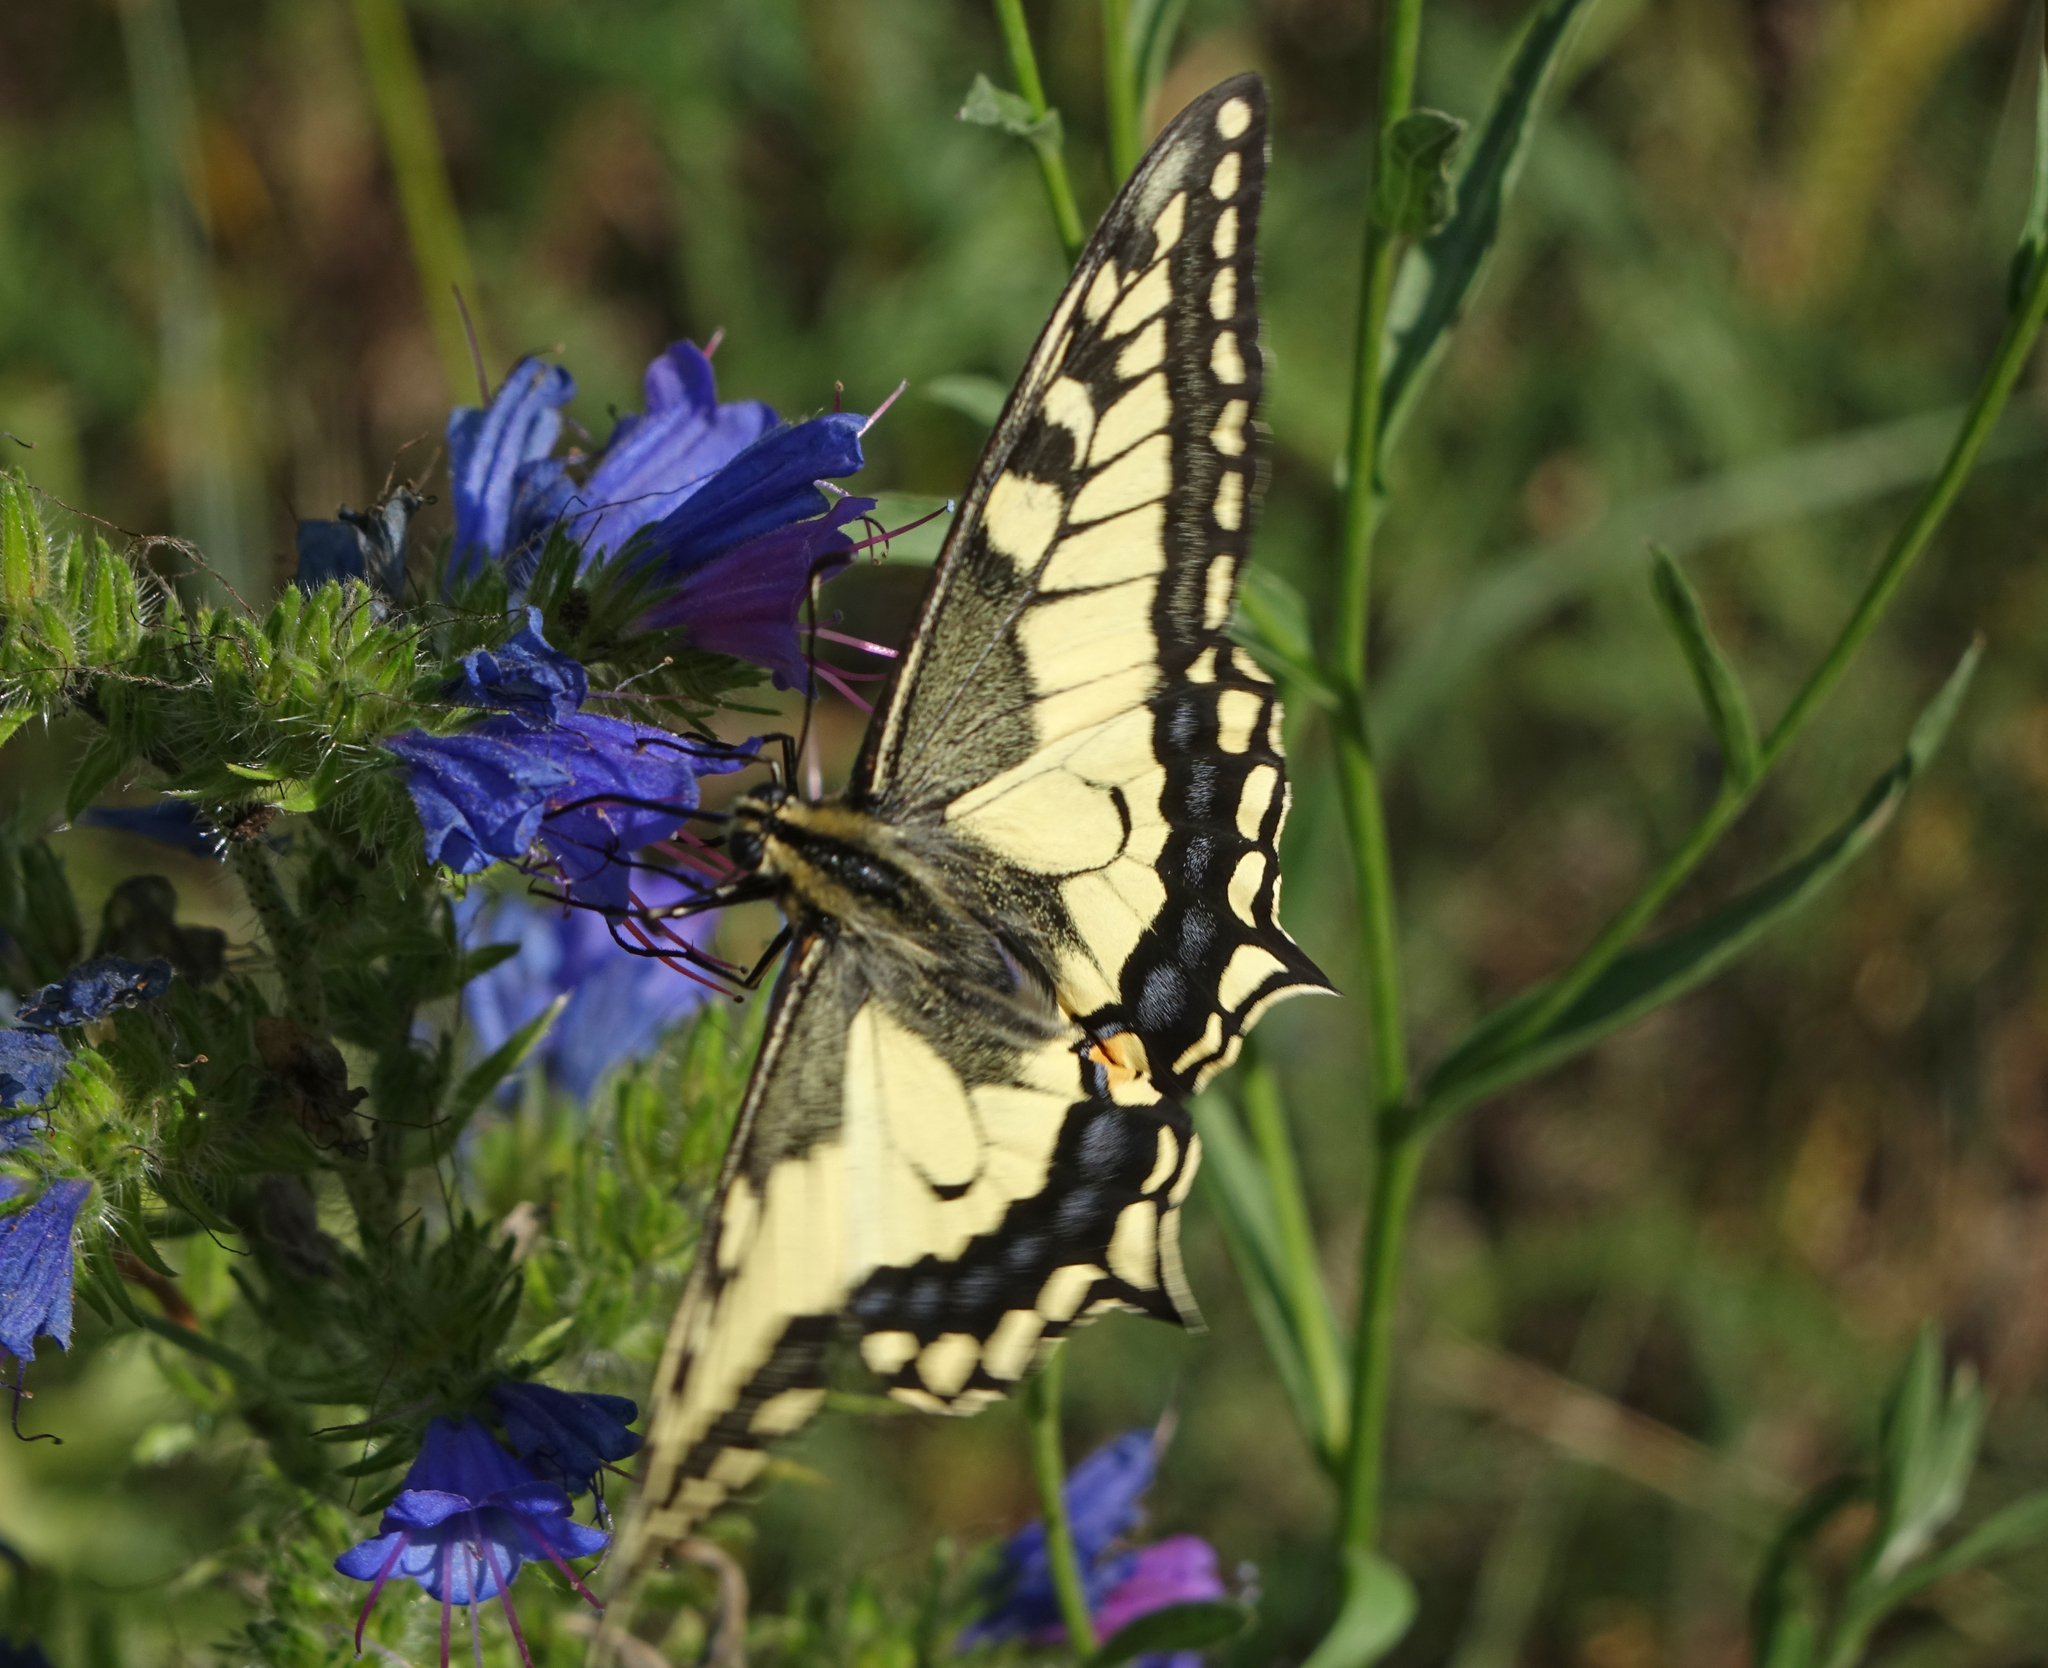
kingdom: Animalia
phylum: Arthropoda
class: Insecta
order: Lepidoptera
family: Papilionidae
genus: Papilio
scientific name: Papilio machaon
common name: Swallowtail
